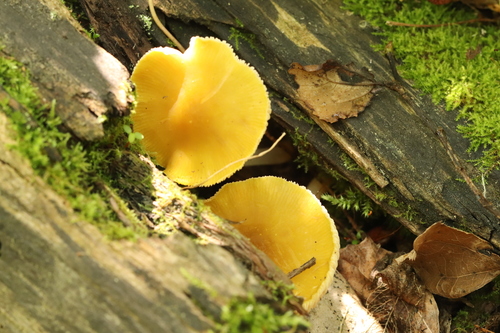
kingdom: Fungi
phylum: Basidiomycota
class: Agaricomycetes
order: Agaricales
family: Pluteaceae
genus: Pluteus
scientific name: Pluteus
